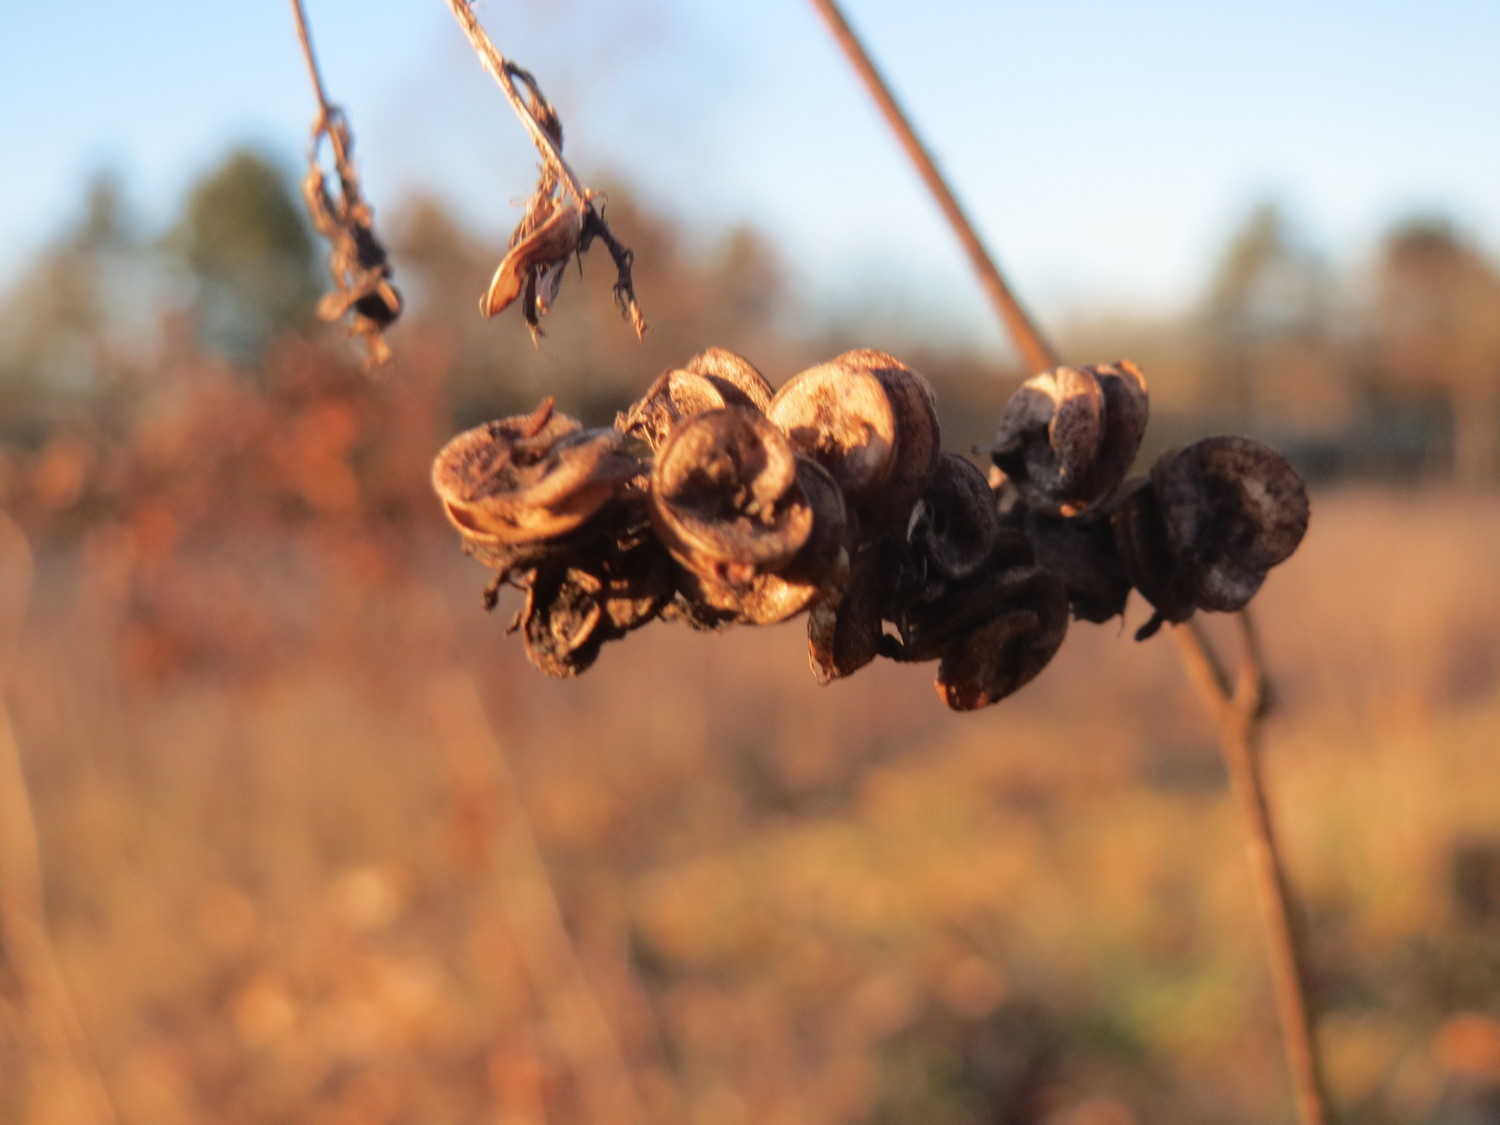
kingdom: Plantae
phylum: Tracheophyta
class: Magnoliopsida
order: Fabales
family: Fabaceae
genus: Medicago
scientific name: Medicago sativa
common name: Alfalfa
